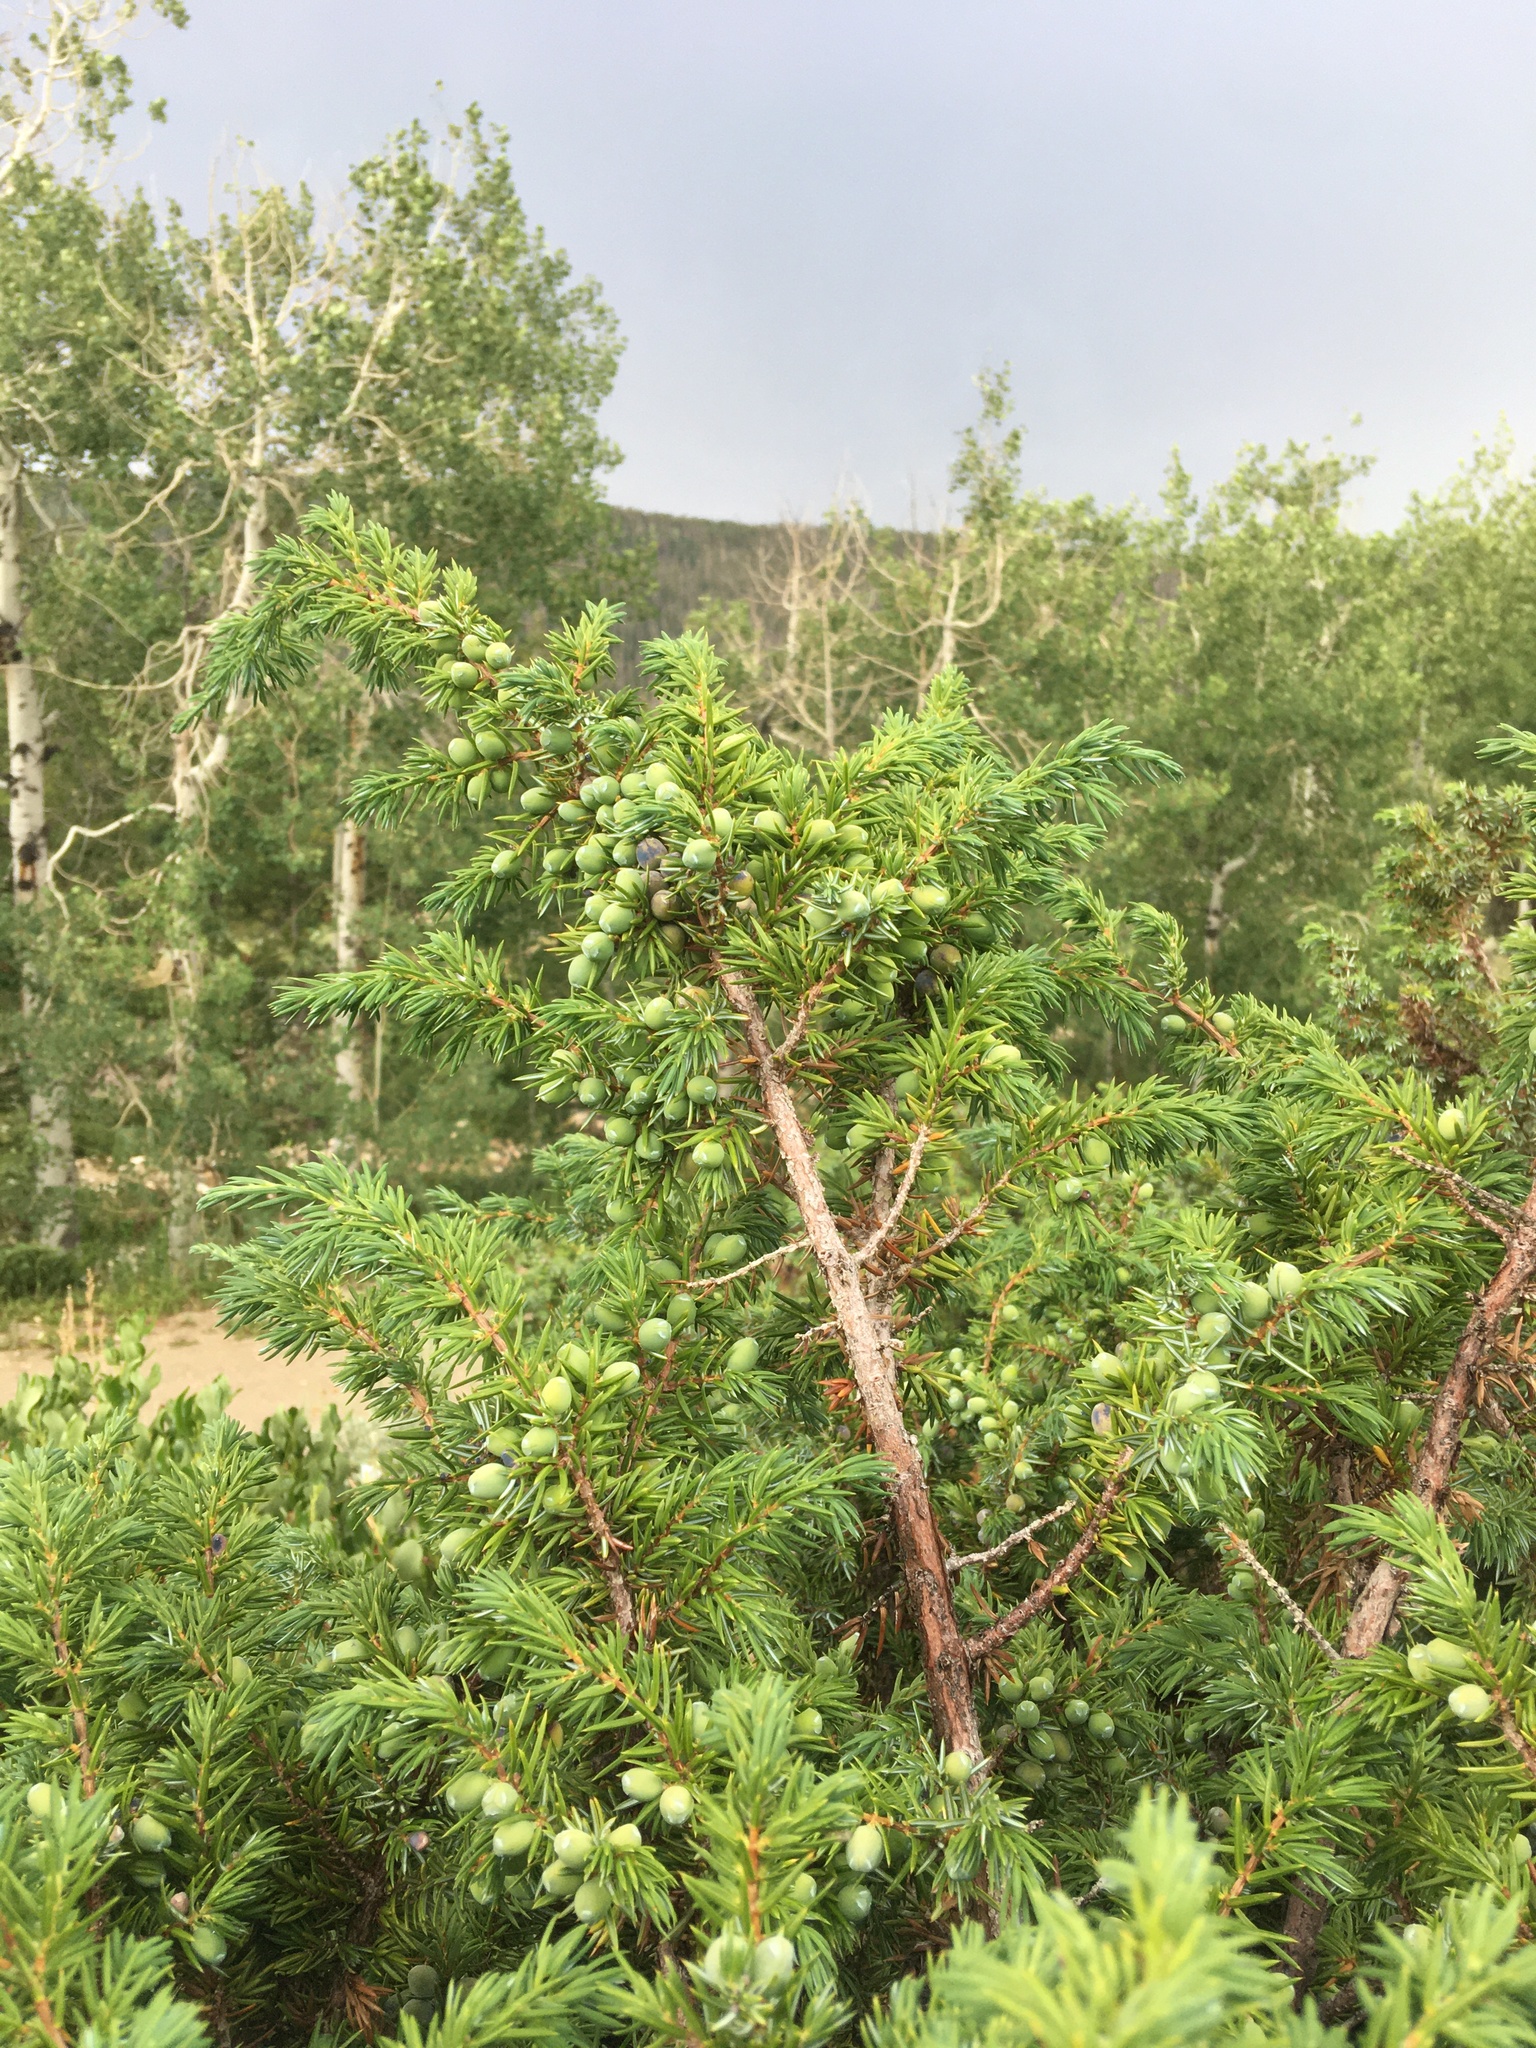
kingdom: Plantae
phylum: Tracheophyta
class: Pinopsida
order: Pinales
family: Cupressaceae
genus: Juniperus
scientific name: Juniperus communis
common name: Common juniper
